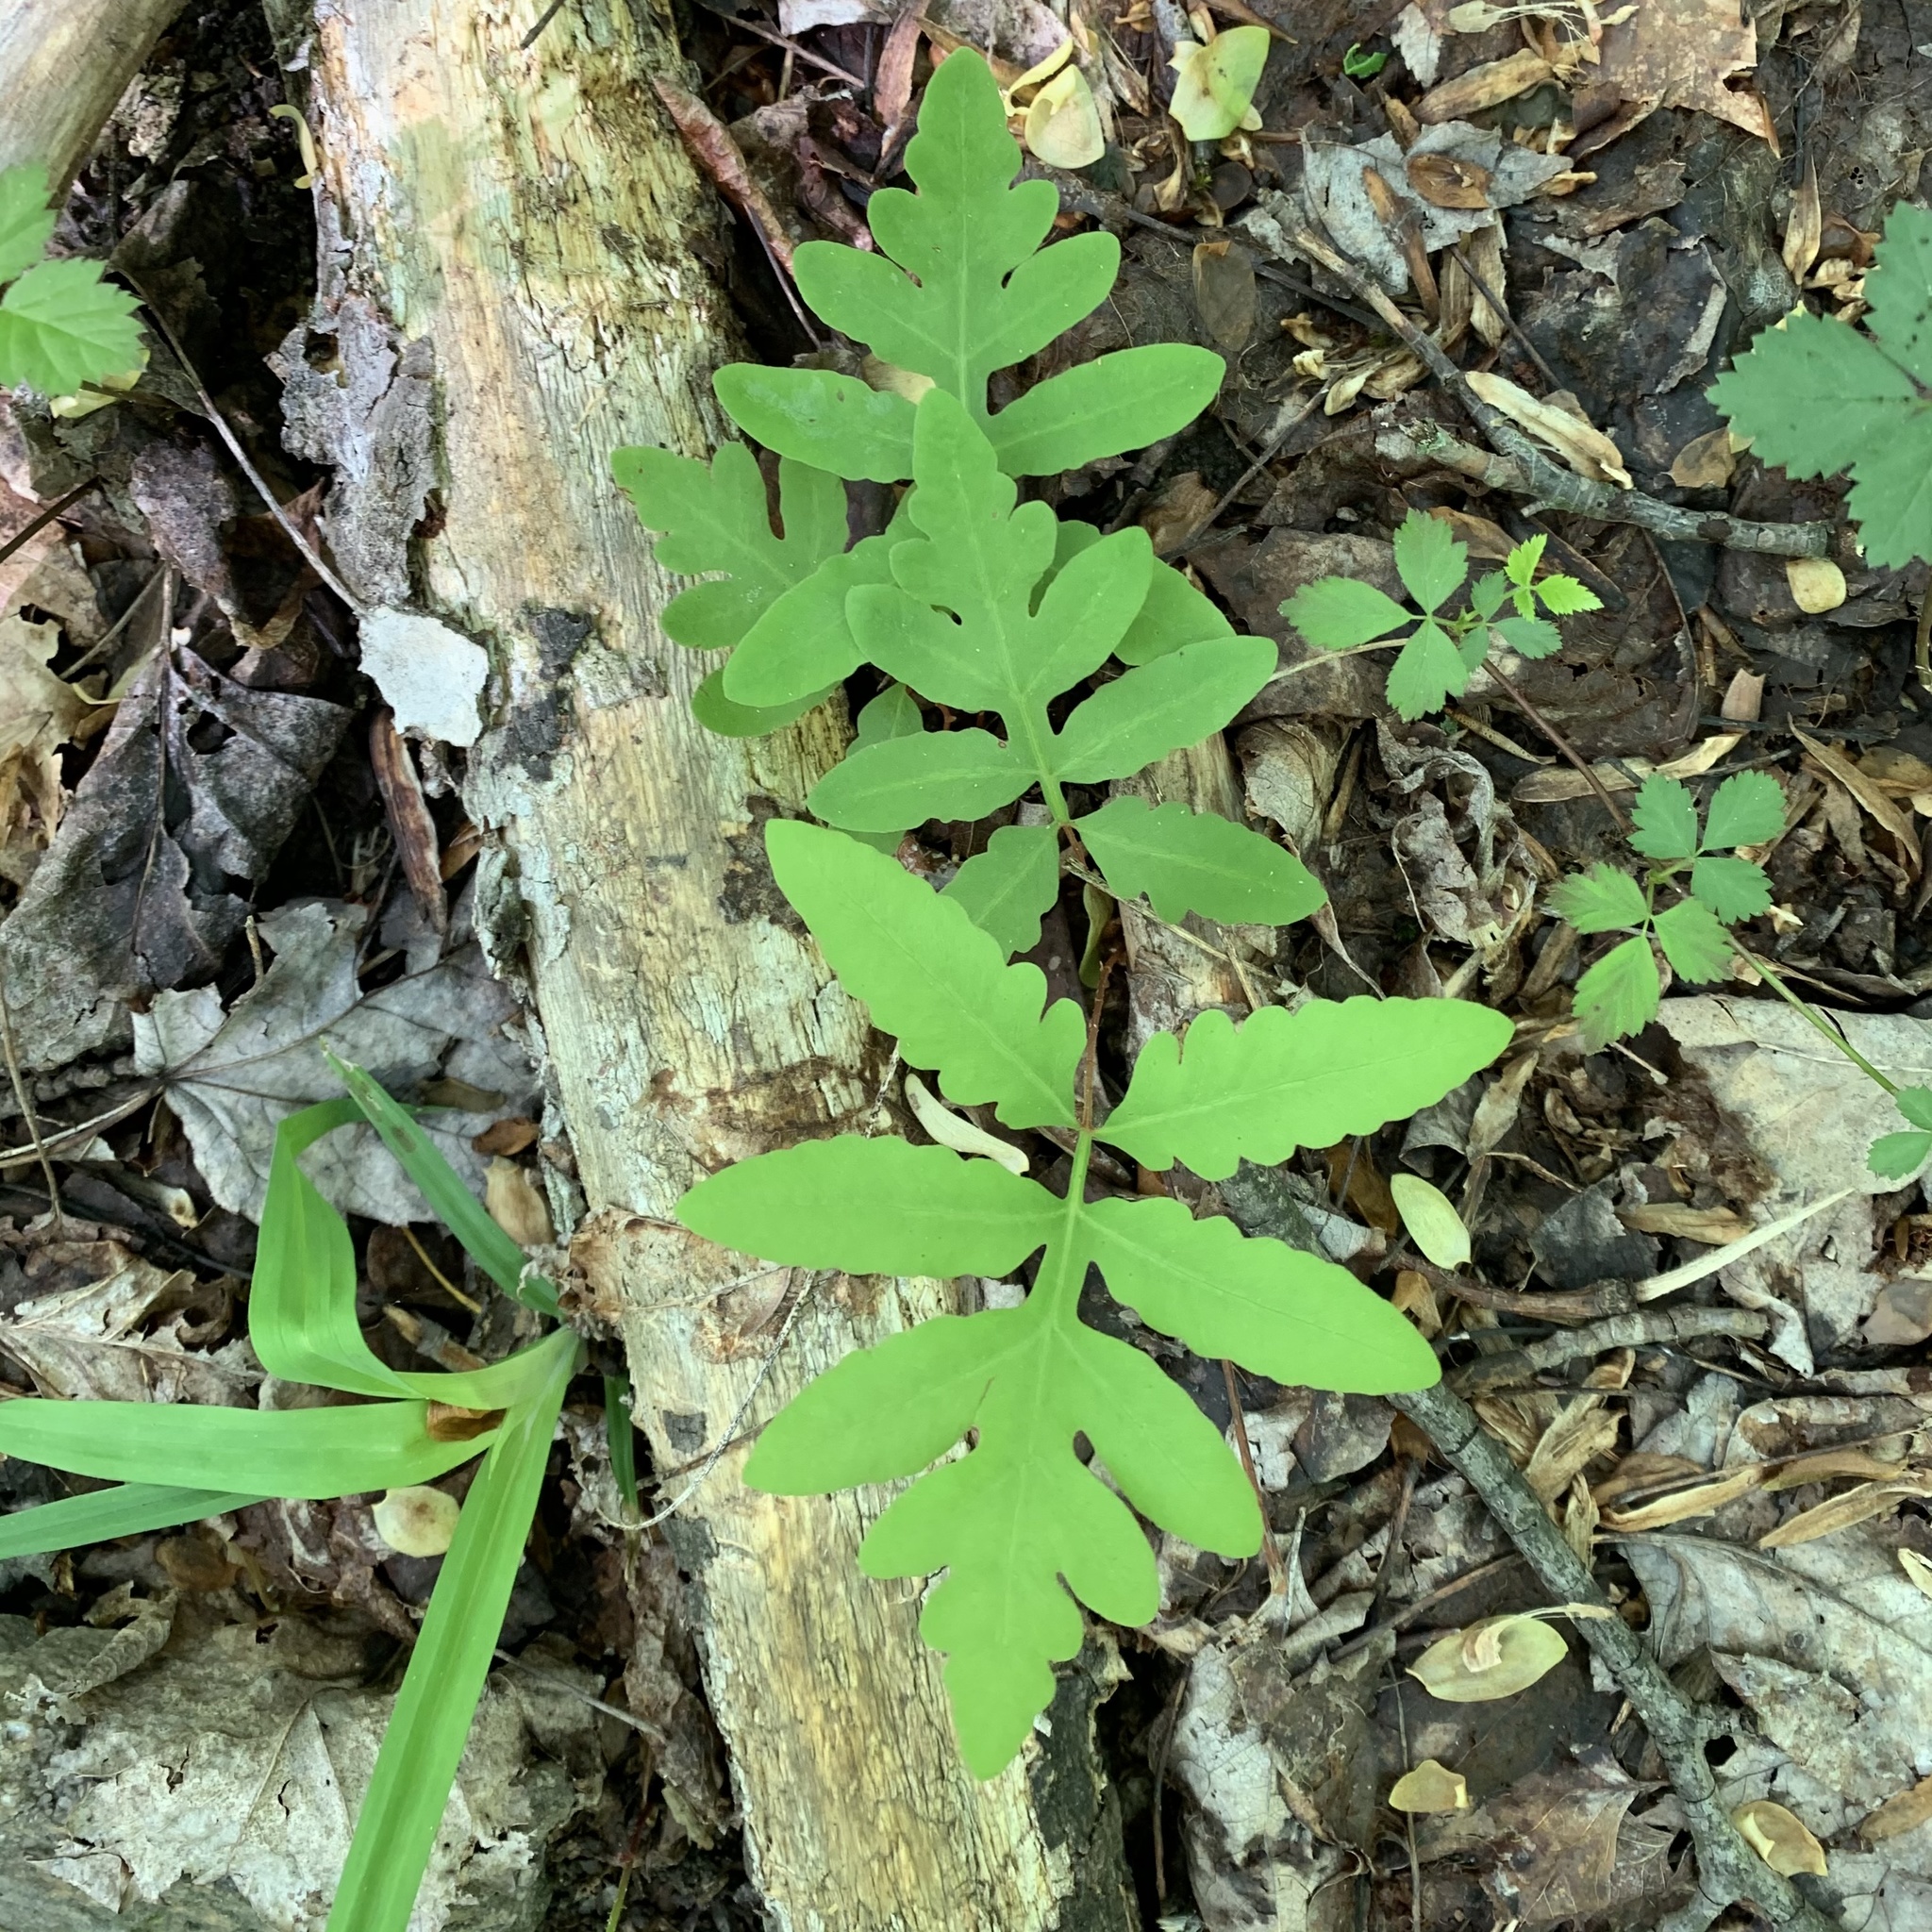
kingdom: Plantae
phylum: Tracheophyta
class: Polypodiopsida
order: Polypodiales
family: Onocleaceae
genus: Onoclea
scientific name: Onoclea sensibilis
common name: Sensitive fern
